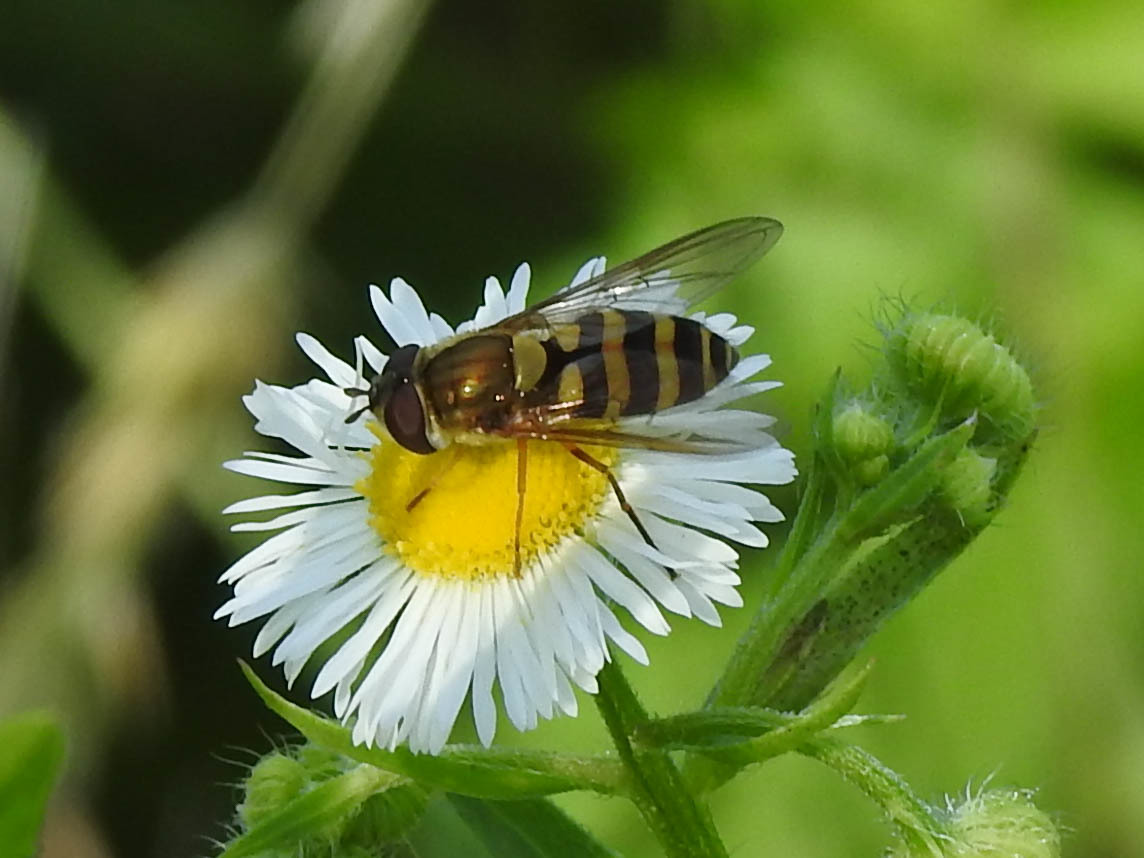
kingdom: Animalia
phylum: Arthropoda
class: Insecta
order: Diptera
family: Syrphidae
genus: Syrphus
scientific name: Syrphus rectus
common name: Yellow-legged flower fly
